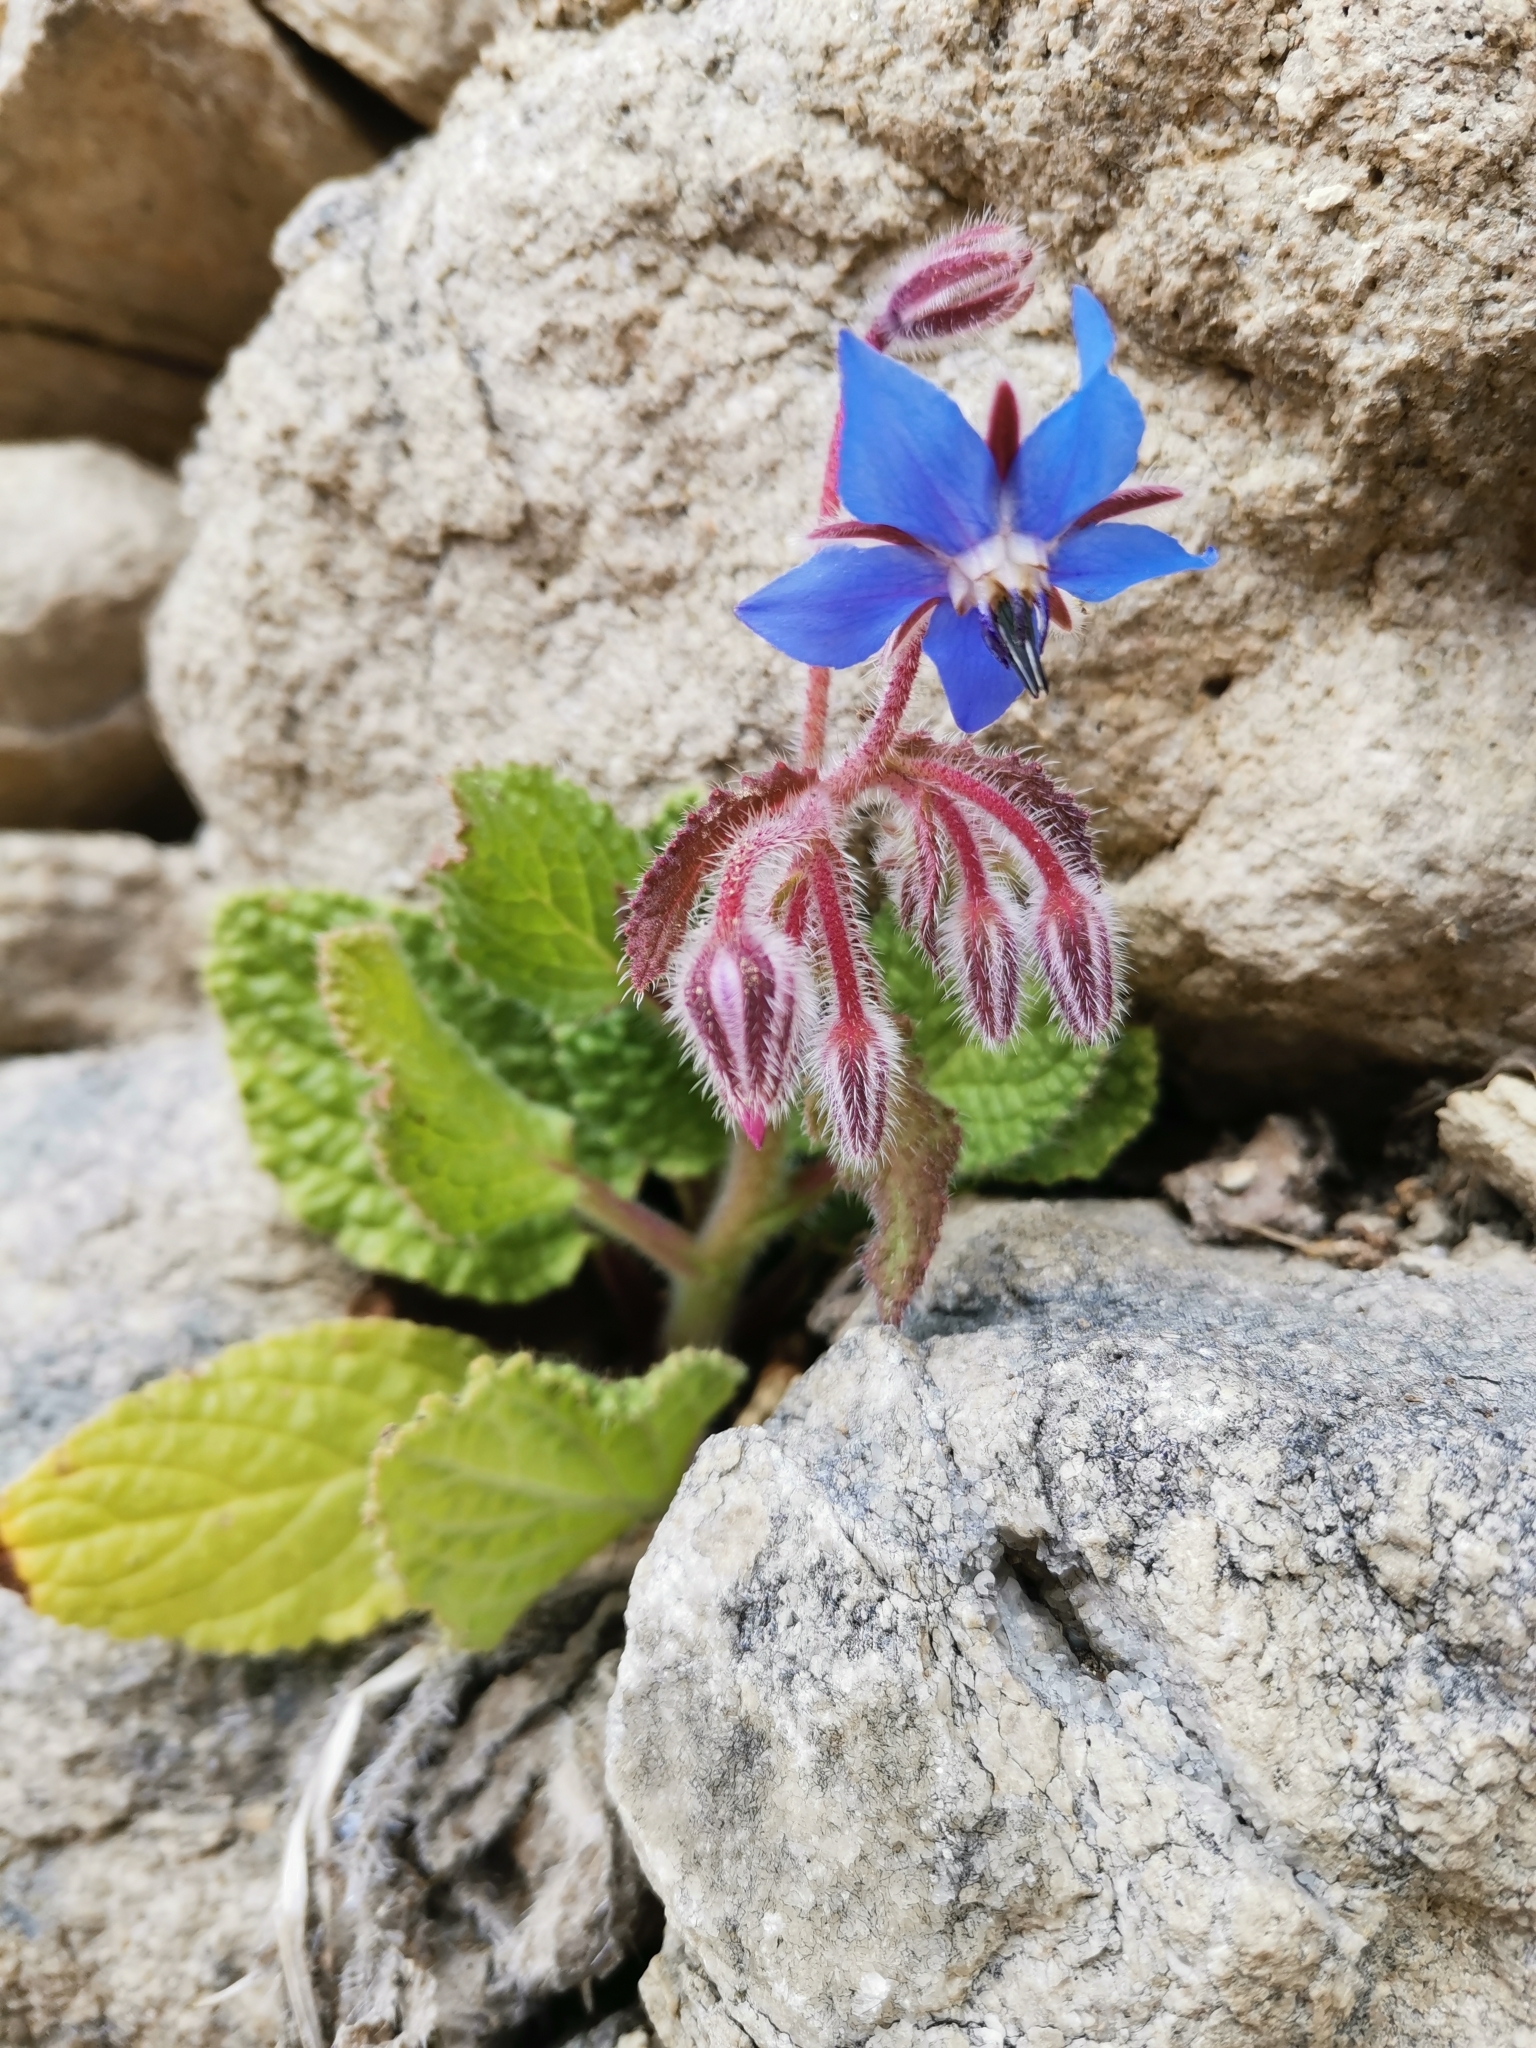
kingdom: Plantae
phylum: Tracheophyta
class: Magnoliopsida
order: Boraginales
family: Boraginaceae
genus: Borago
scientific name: Borago officinalis
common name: Borage
